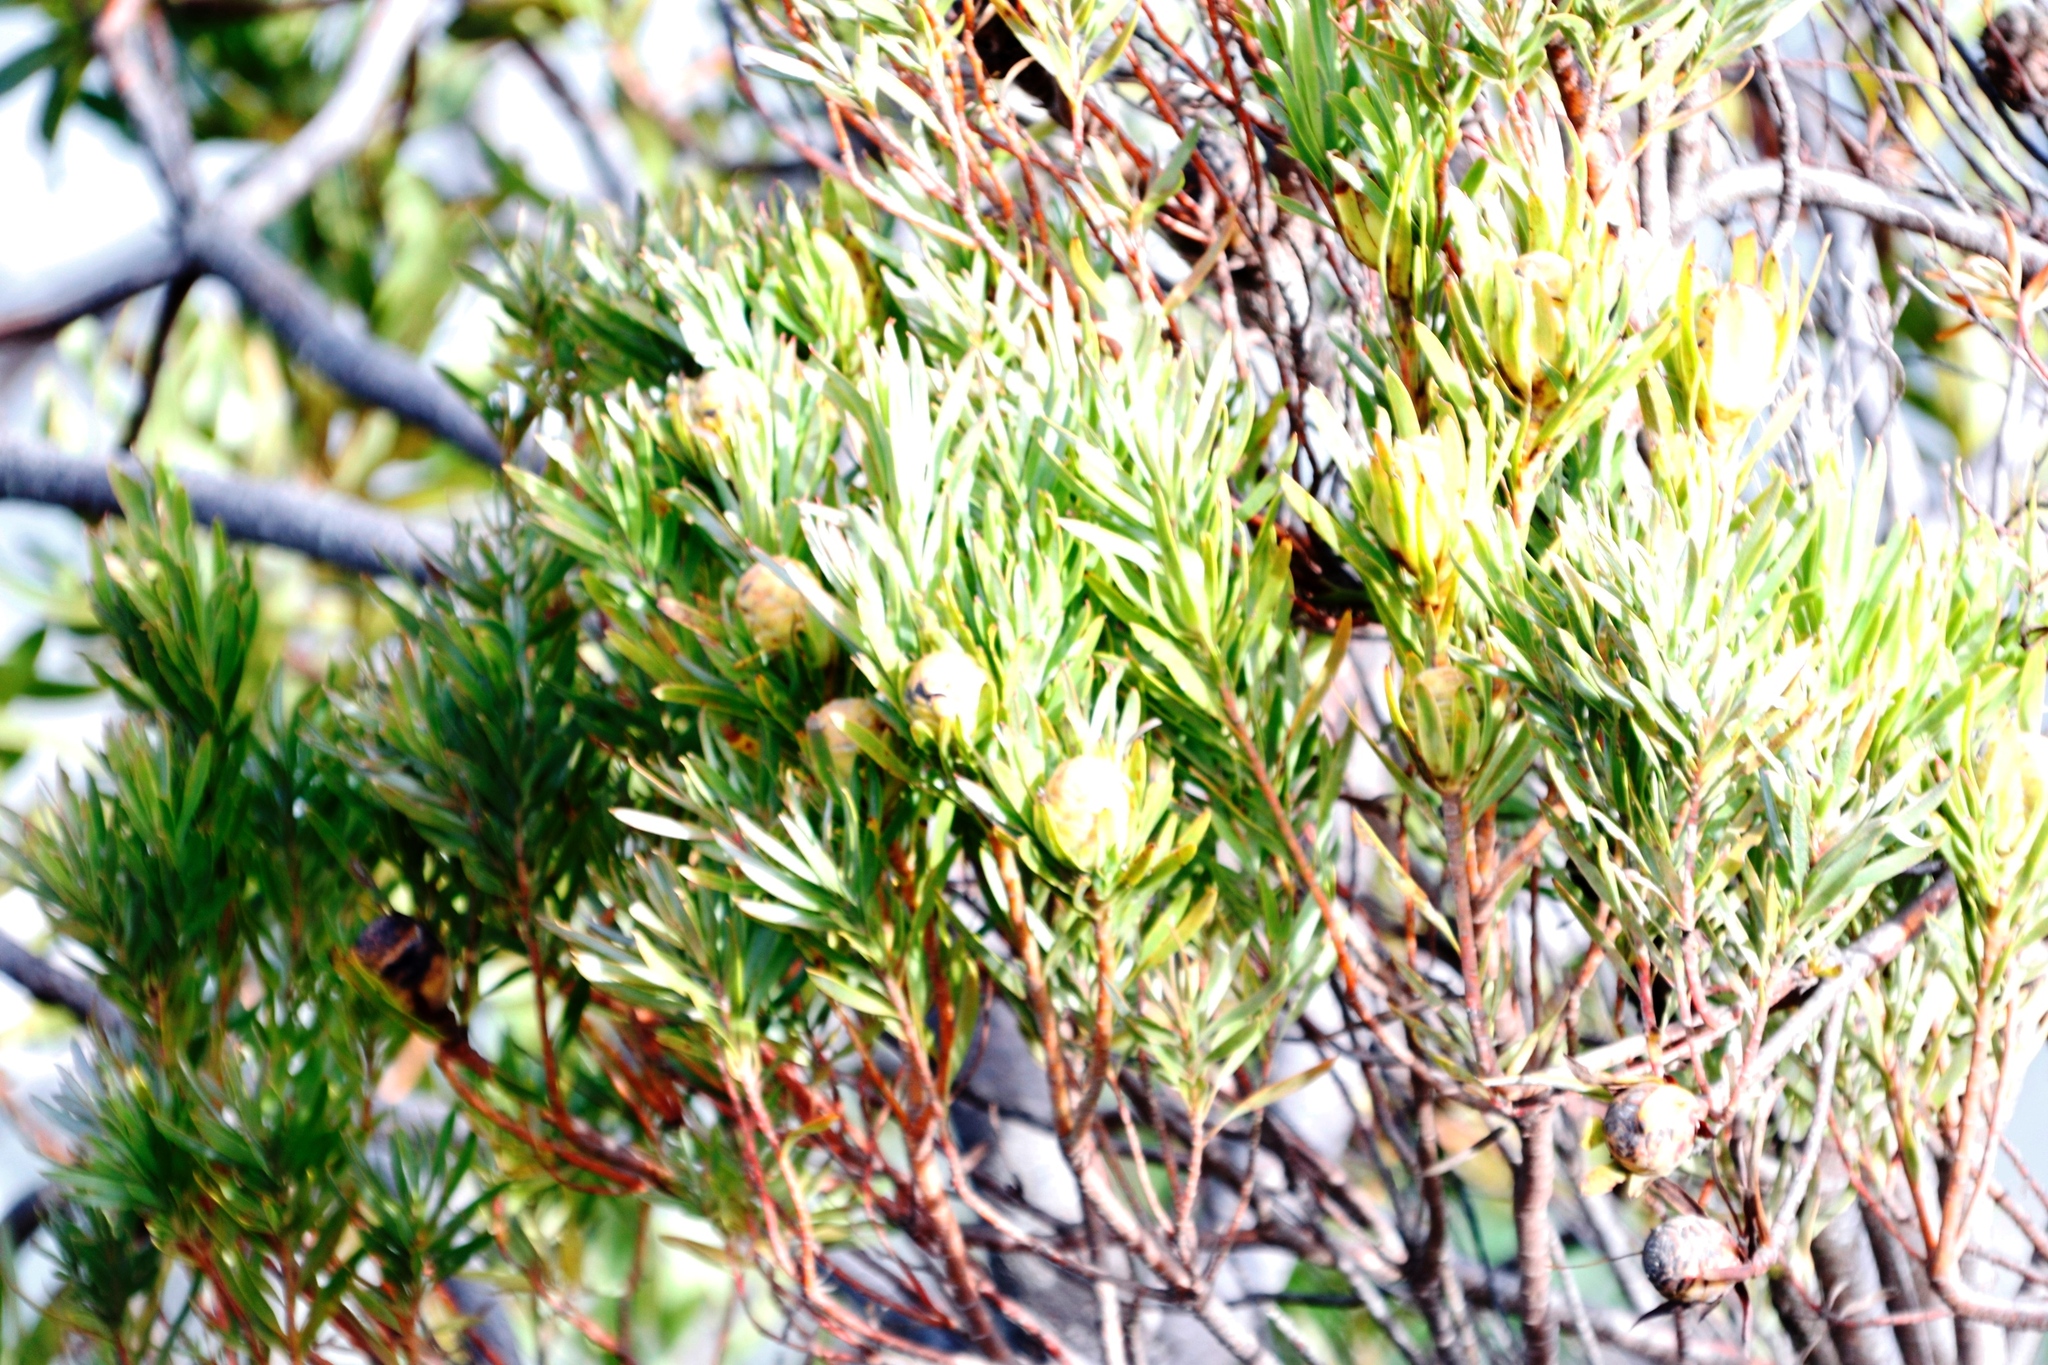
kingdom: Plantae
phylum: Tracheophyta
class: Magnoliopsida
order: Proteales
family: Proteaceae
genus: Leucadendron
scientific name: Leucadendron xanthoconus
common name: Sickle-leaf conebush
